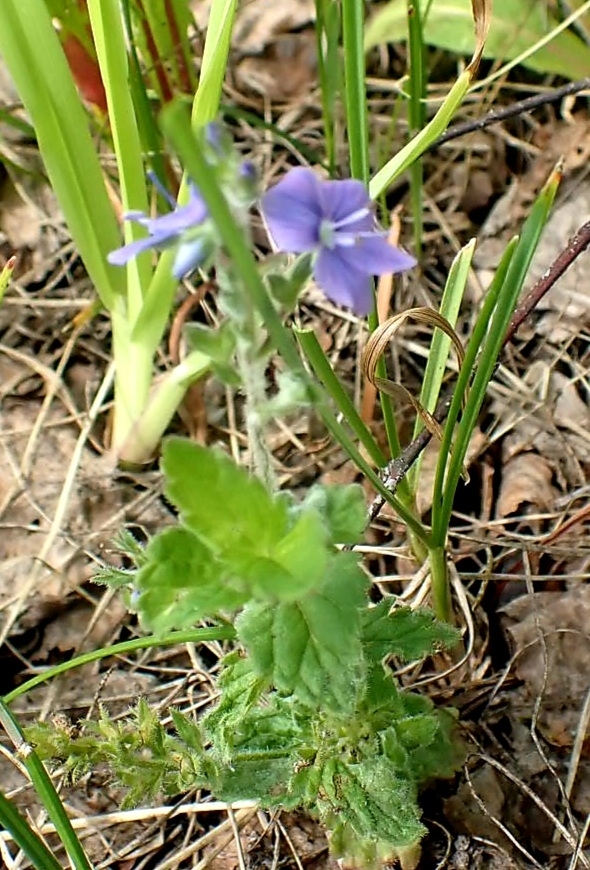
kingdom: Plantae
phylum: Tracheophyta
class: Magnoliopsida
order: Lamiales
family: Plantaginaceae
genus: Veronica
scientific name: Veronica chamaedrys
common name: Germander speedwell
